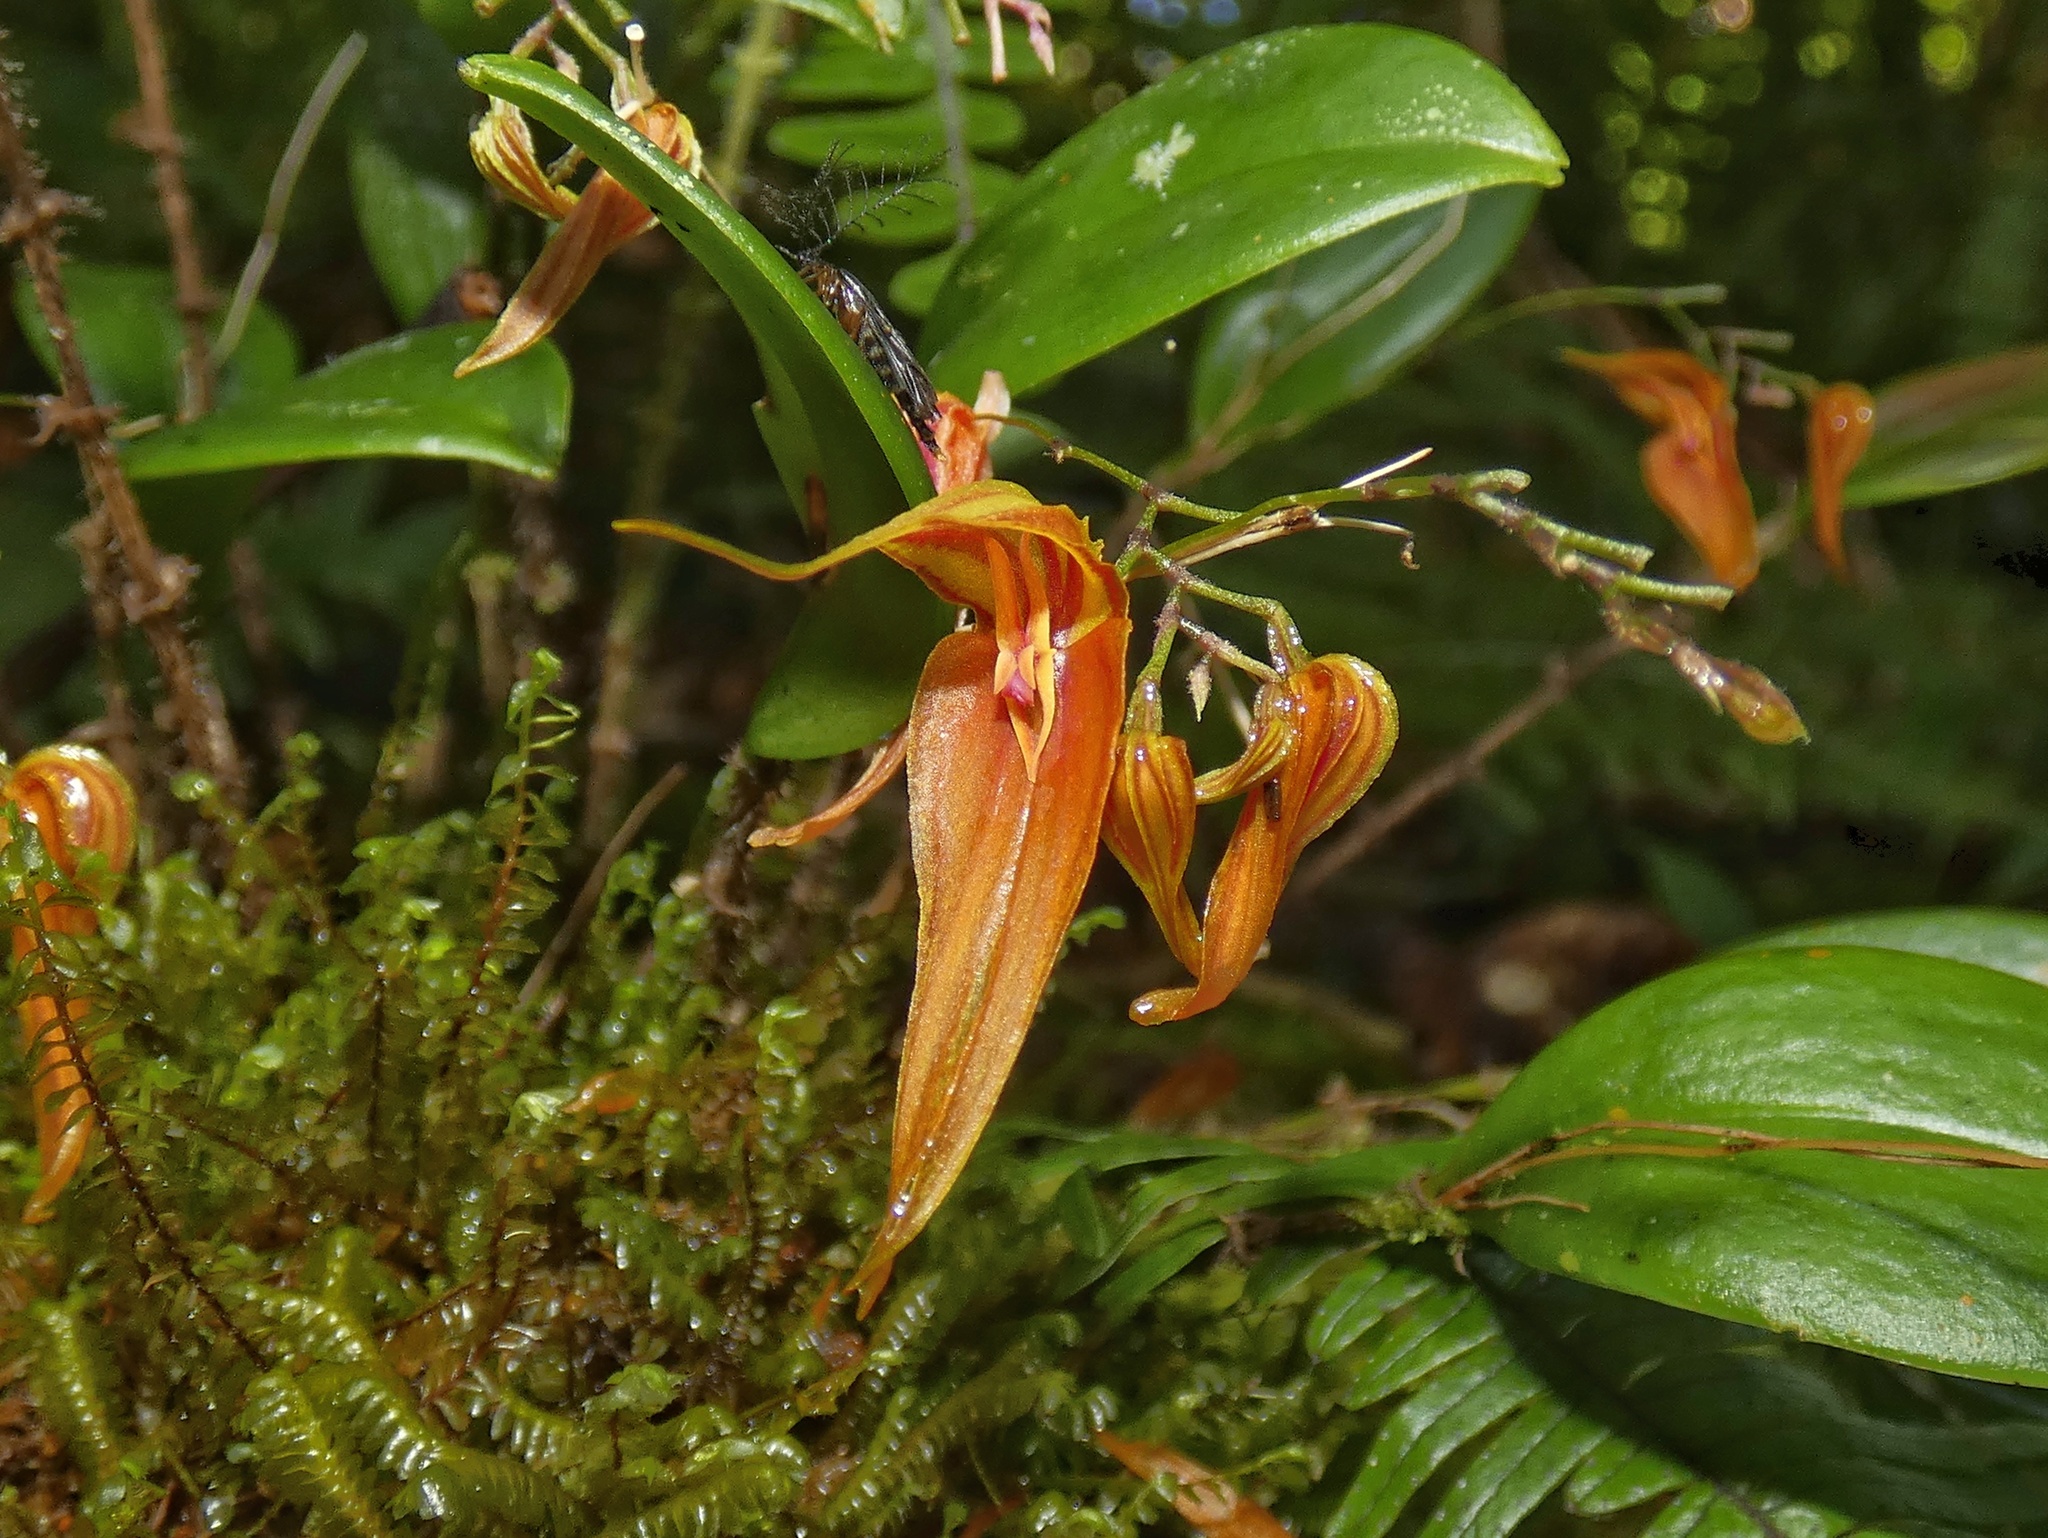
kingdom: Plantae
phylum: Tracheophyta
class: Liliopsida
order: Asparagales
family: Orchidaceae
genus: Lepanthes
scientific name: Lepanthes genetoapophantica
